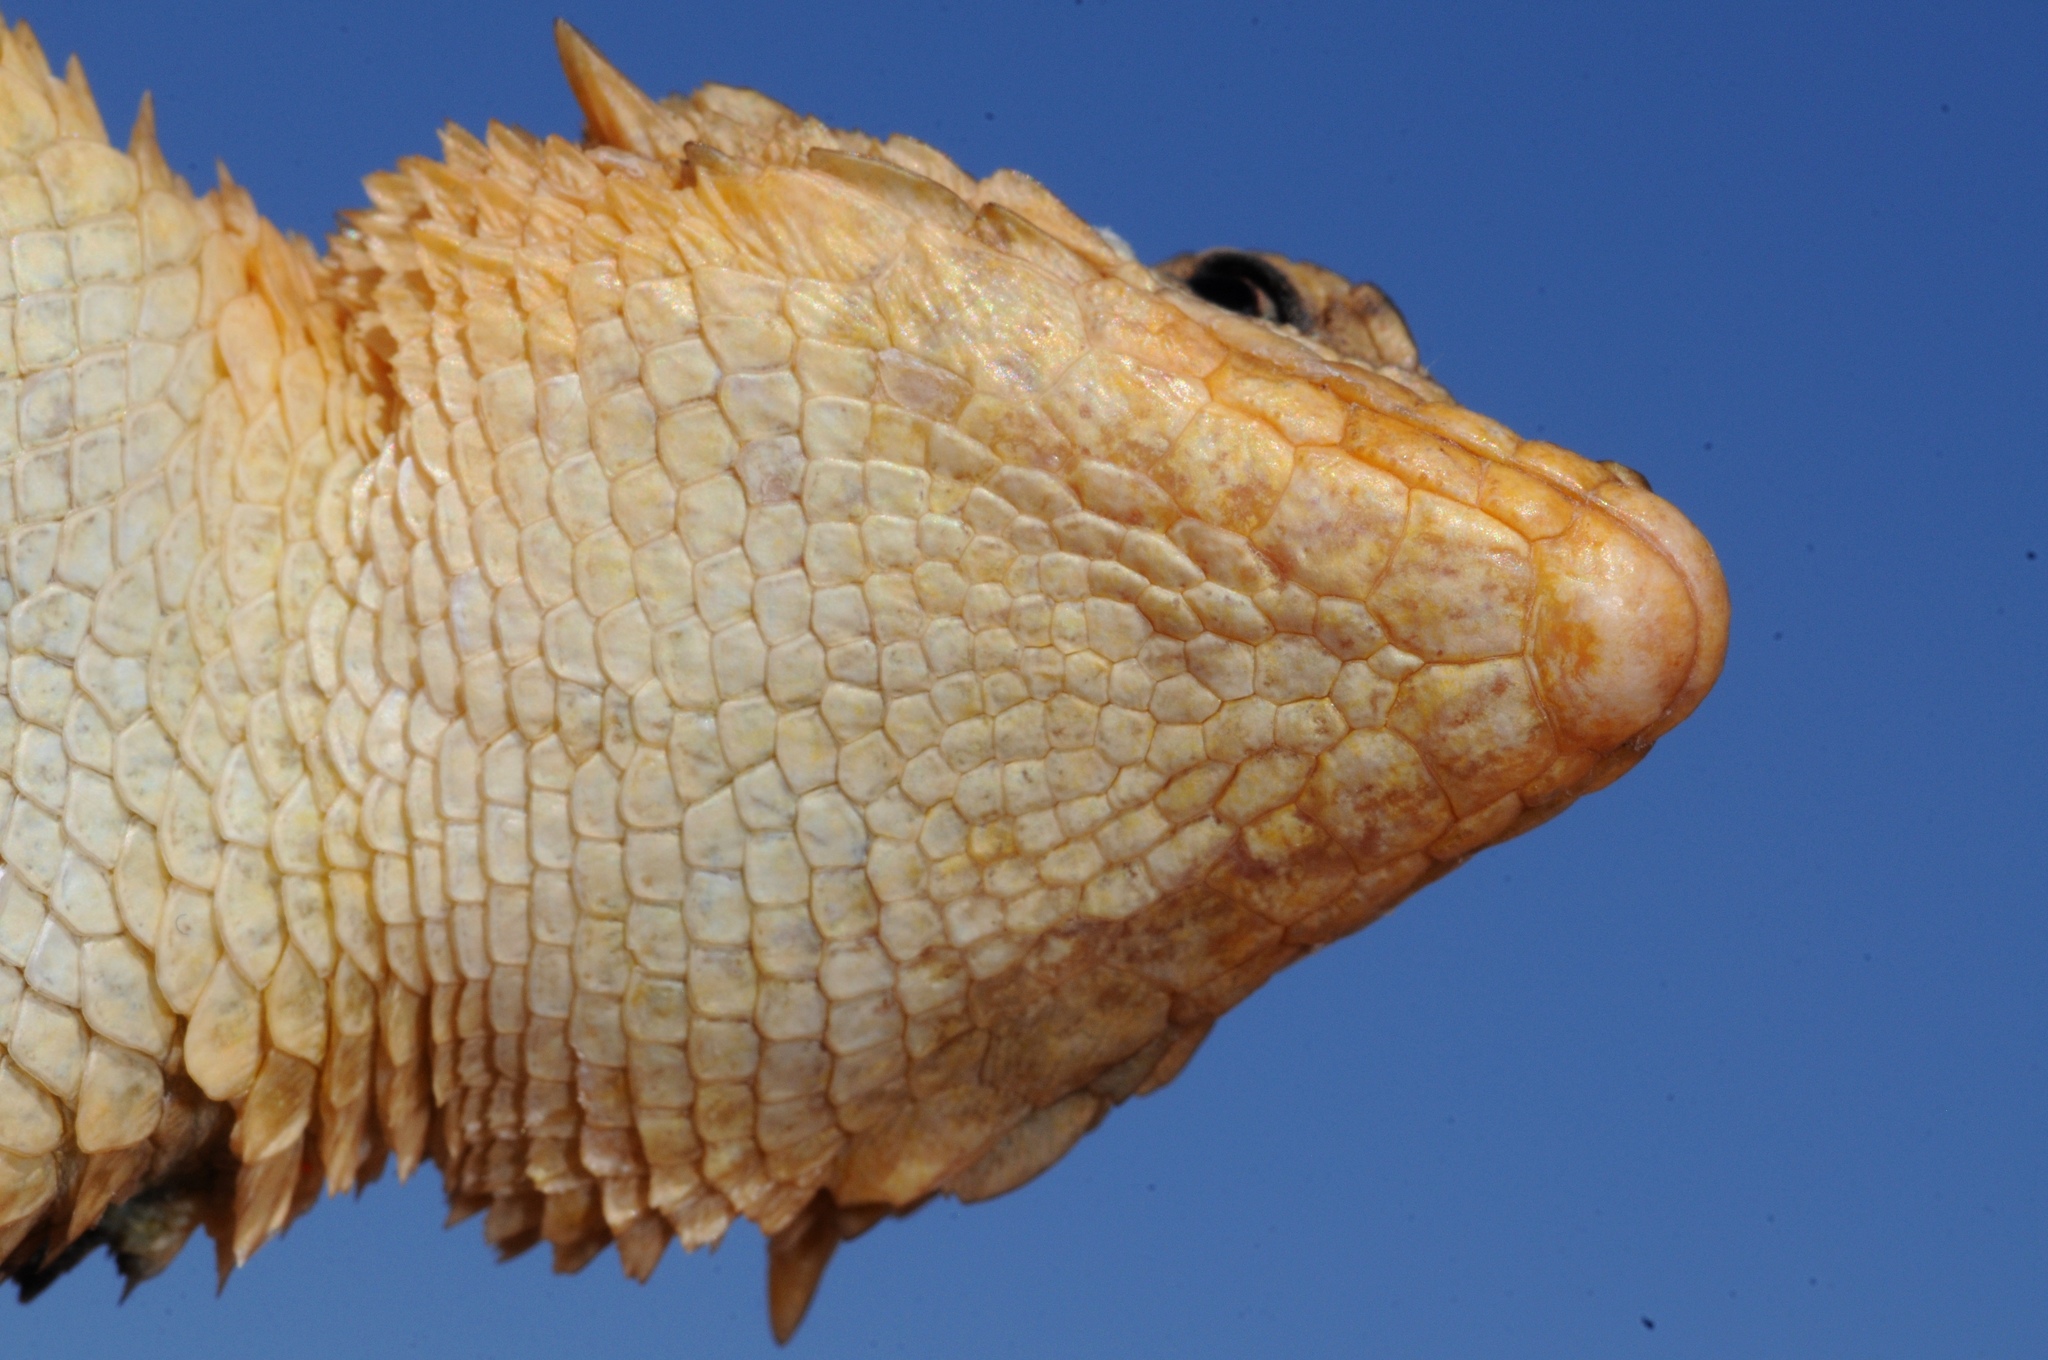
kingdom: Animalia
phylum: Chordata
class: Squamata
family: Cordylidae
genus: Karusasaurus
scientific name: Karusasaurus polyzonus
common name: Karoo girdled lizard
